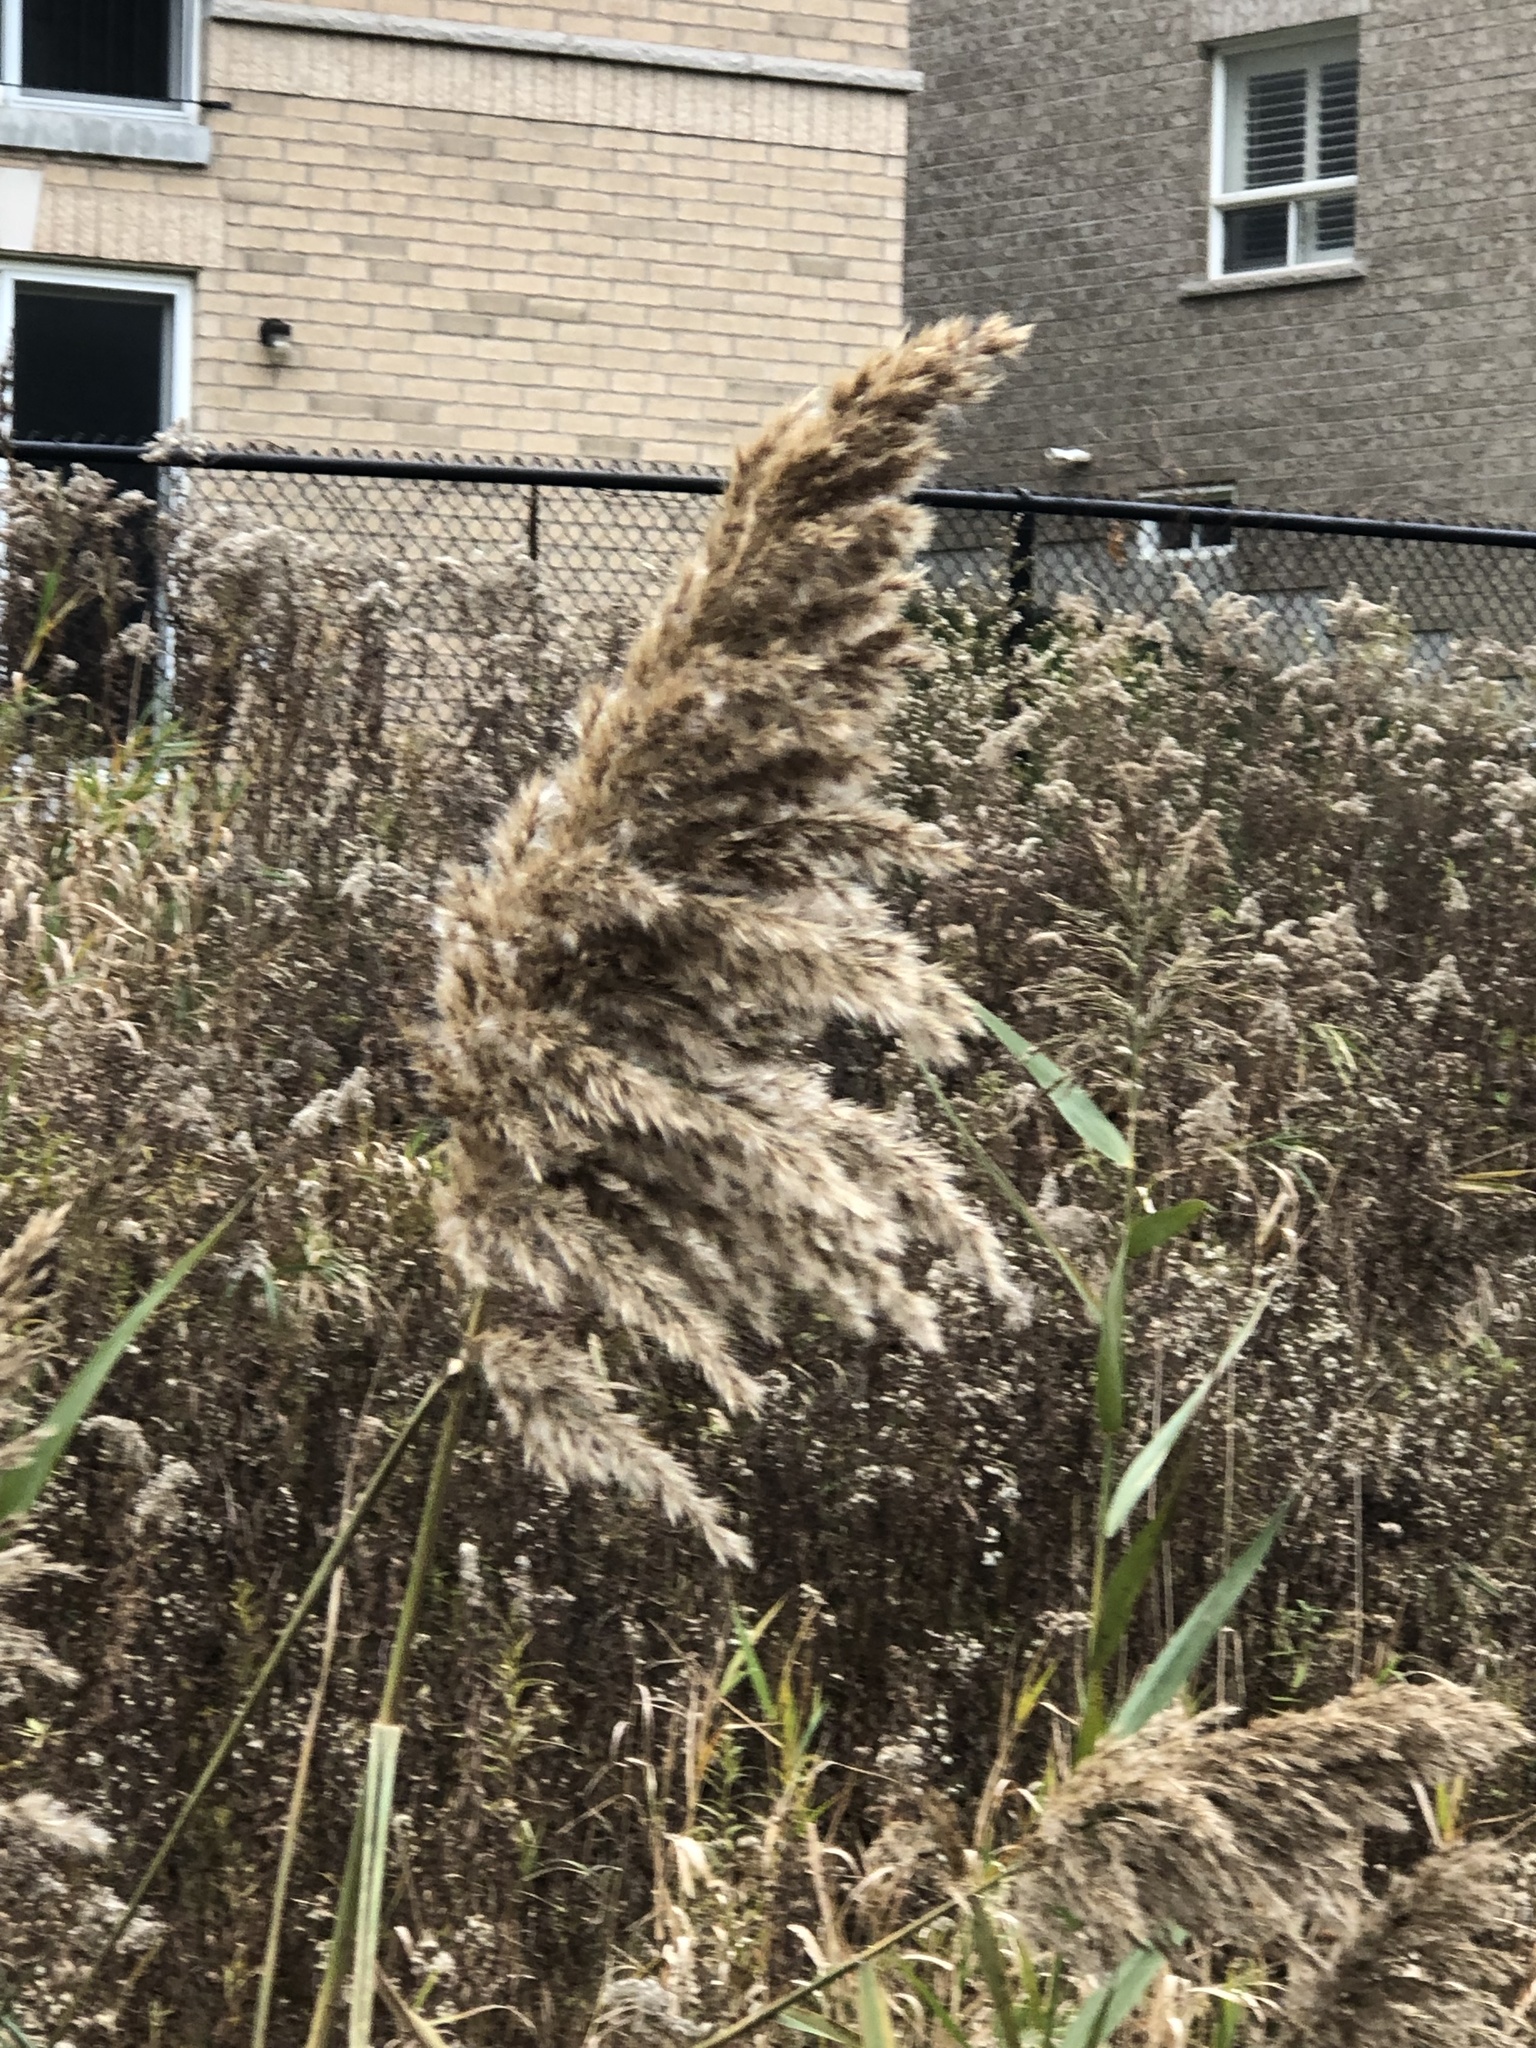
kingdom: Plantae
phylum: Tracheophyta
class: Liliopsida
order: Poales
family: Poaceae
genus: Phragmites
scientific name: Phragmites australis
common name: Common reed
